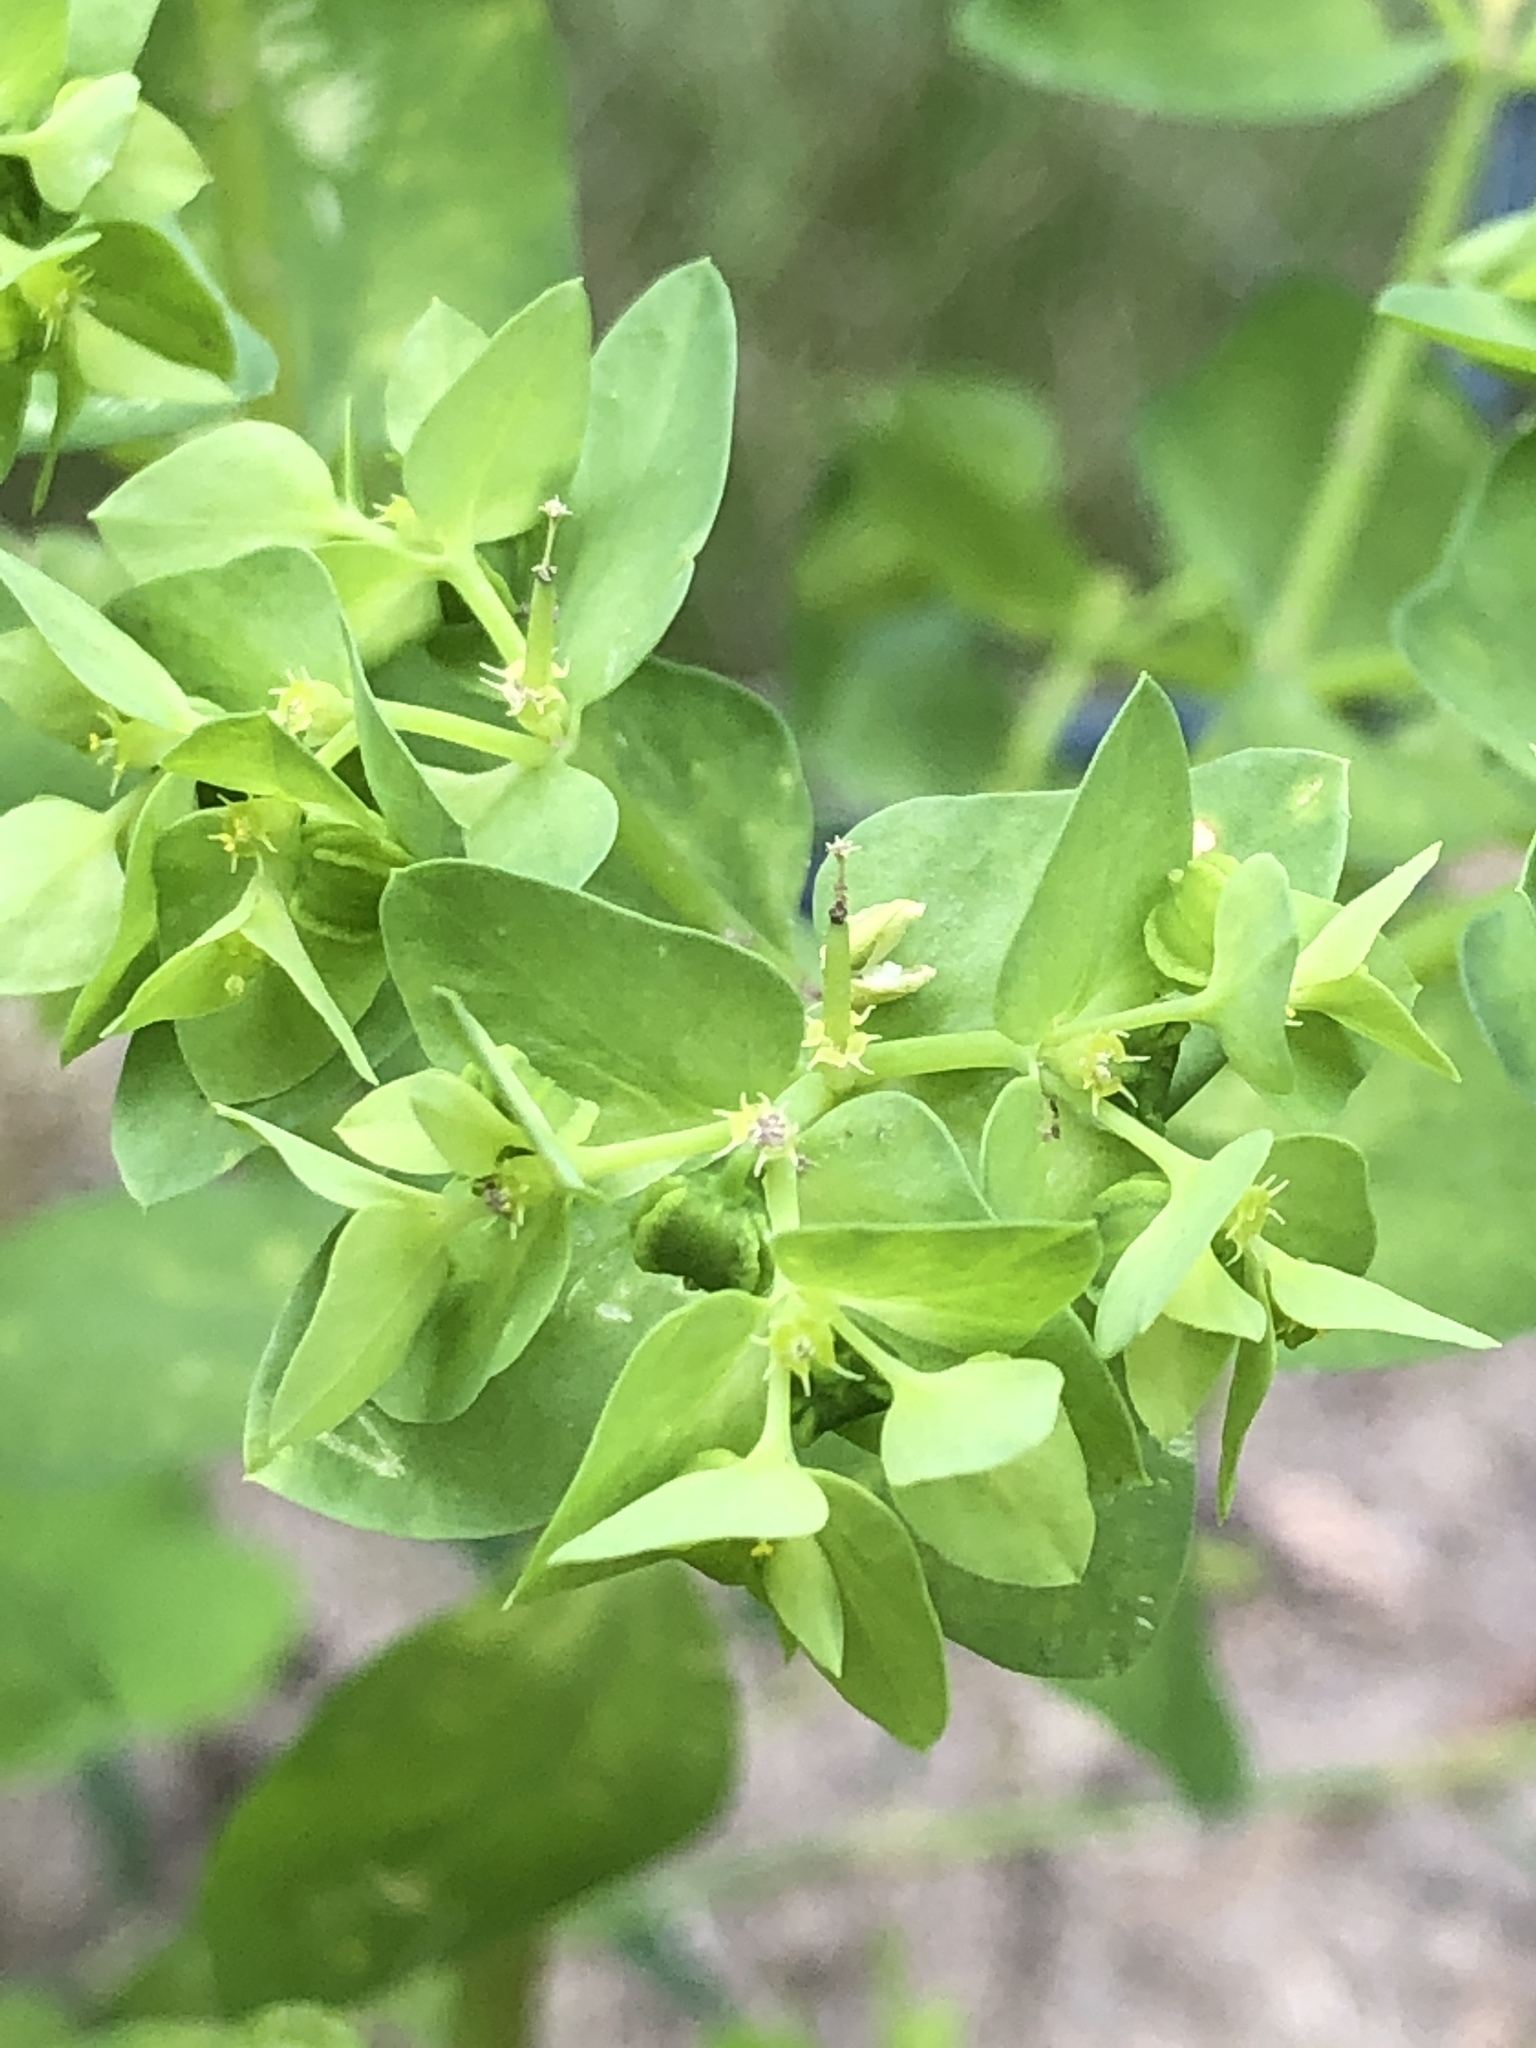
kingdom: Plantae
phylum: Tracheophyta
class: Magnoliopsida
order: Malpighiales
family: Euphorbiaceae
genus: Euphorbia
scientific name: Euphorbia peplus
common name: Petty spurge
